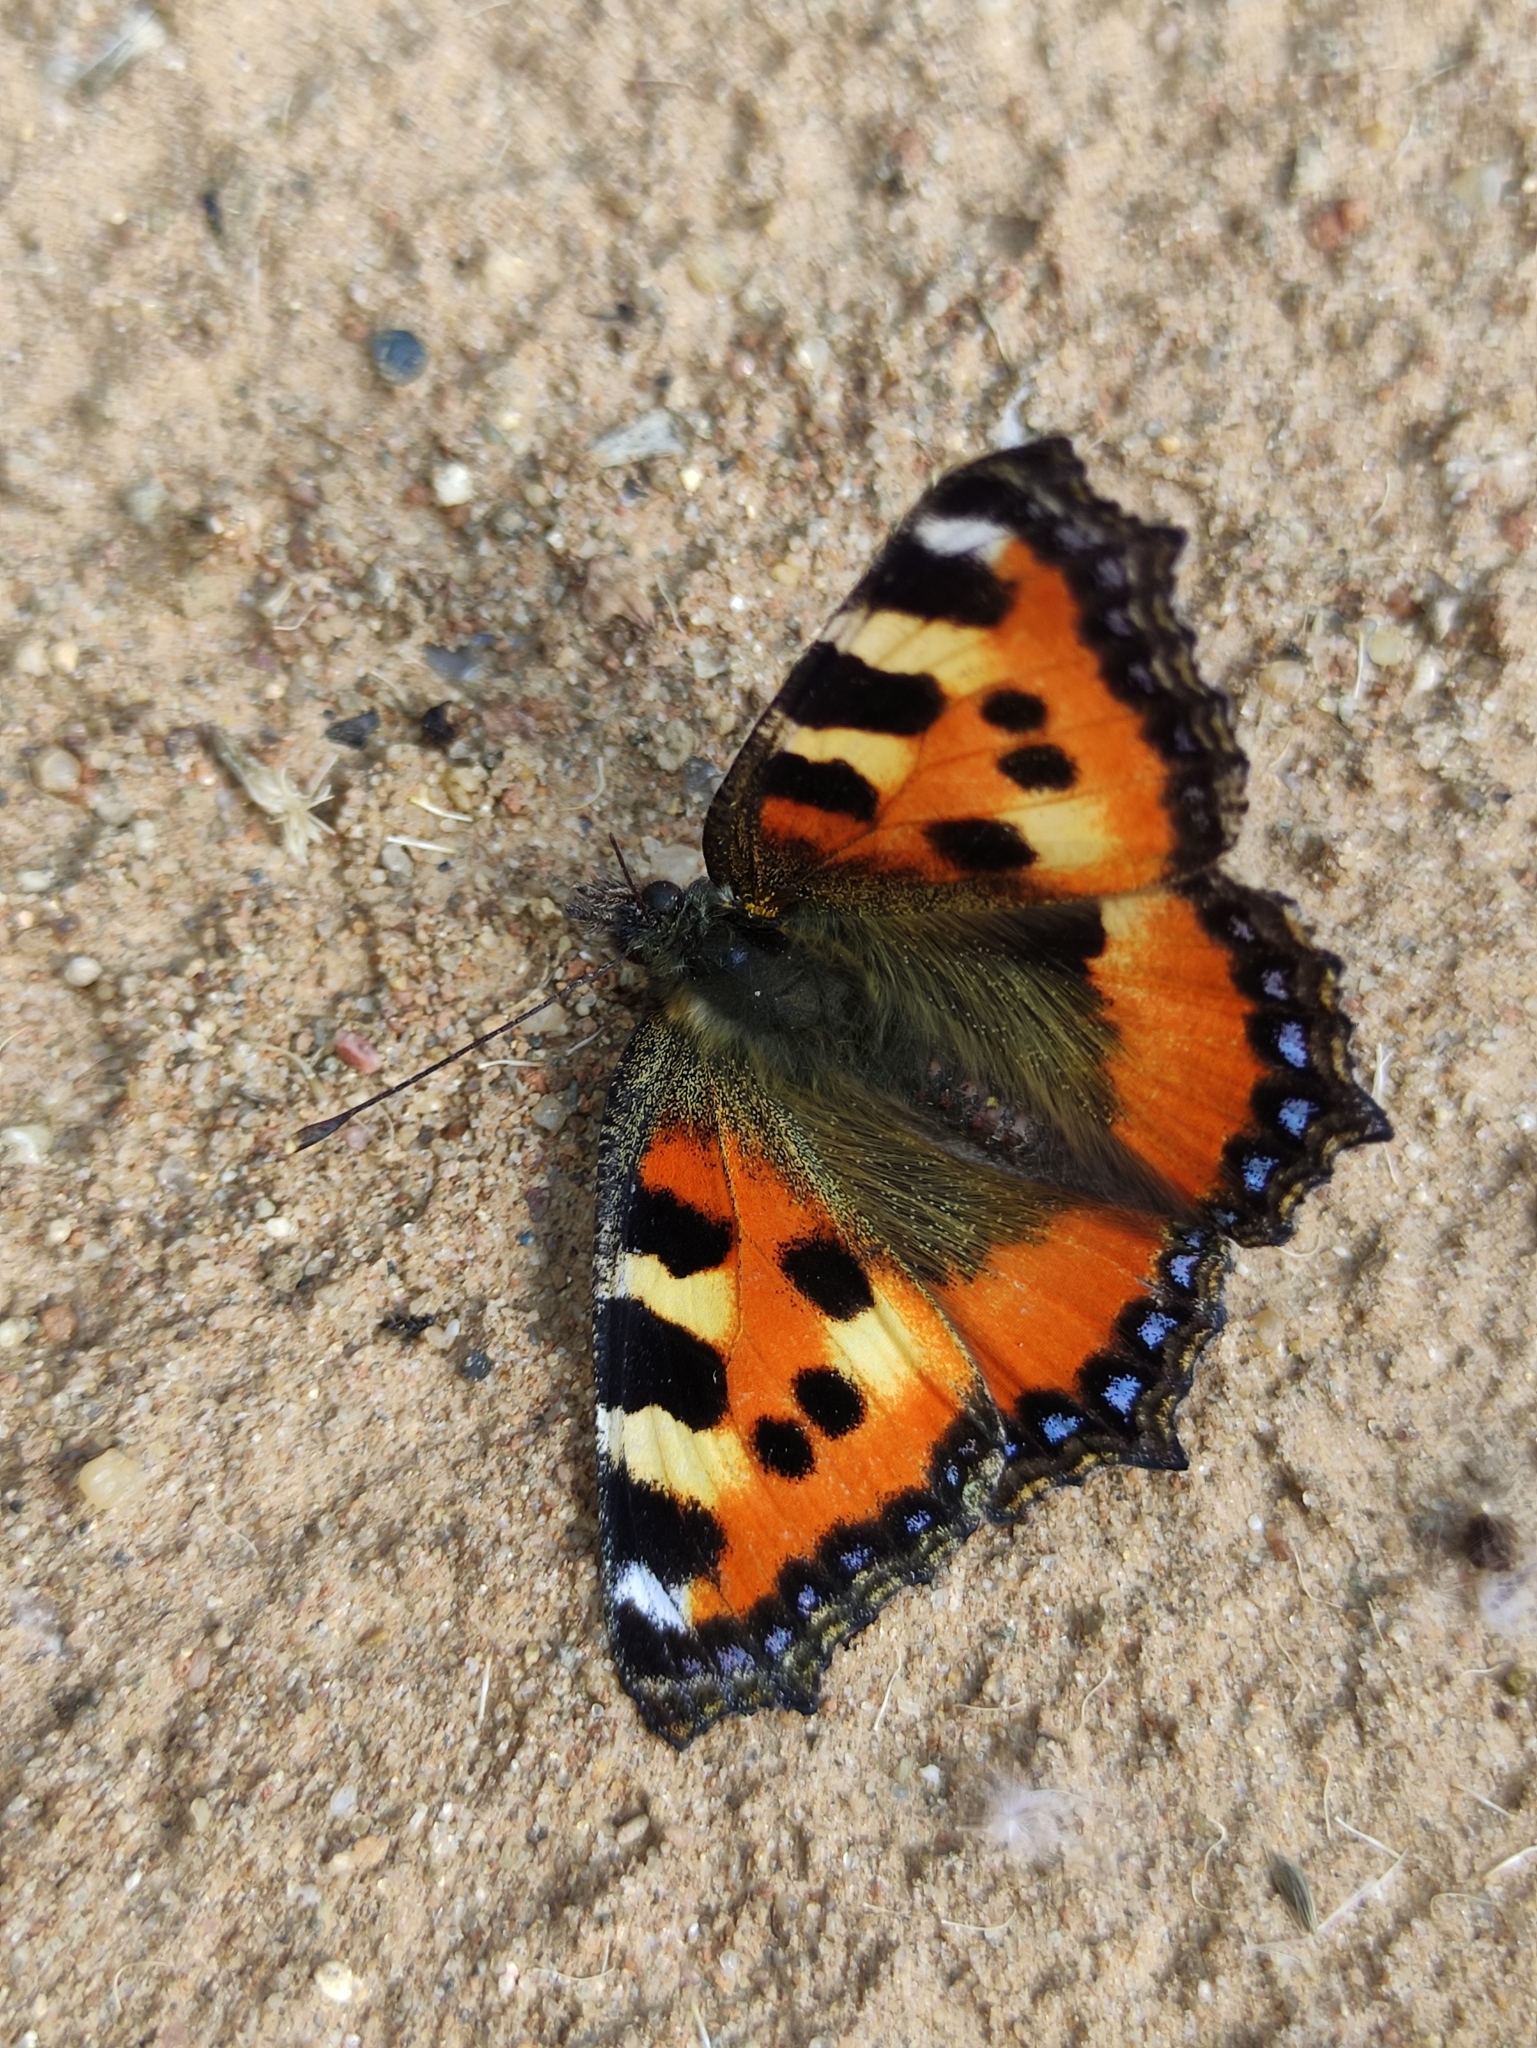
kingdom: Animalia
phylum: Arthropoda
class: Insecta
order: Lepidoptera
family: Nymphalidae
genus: Aglais
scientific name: Aglais urticae
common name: Small tortoiseshell
